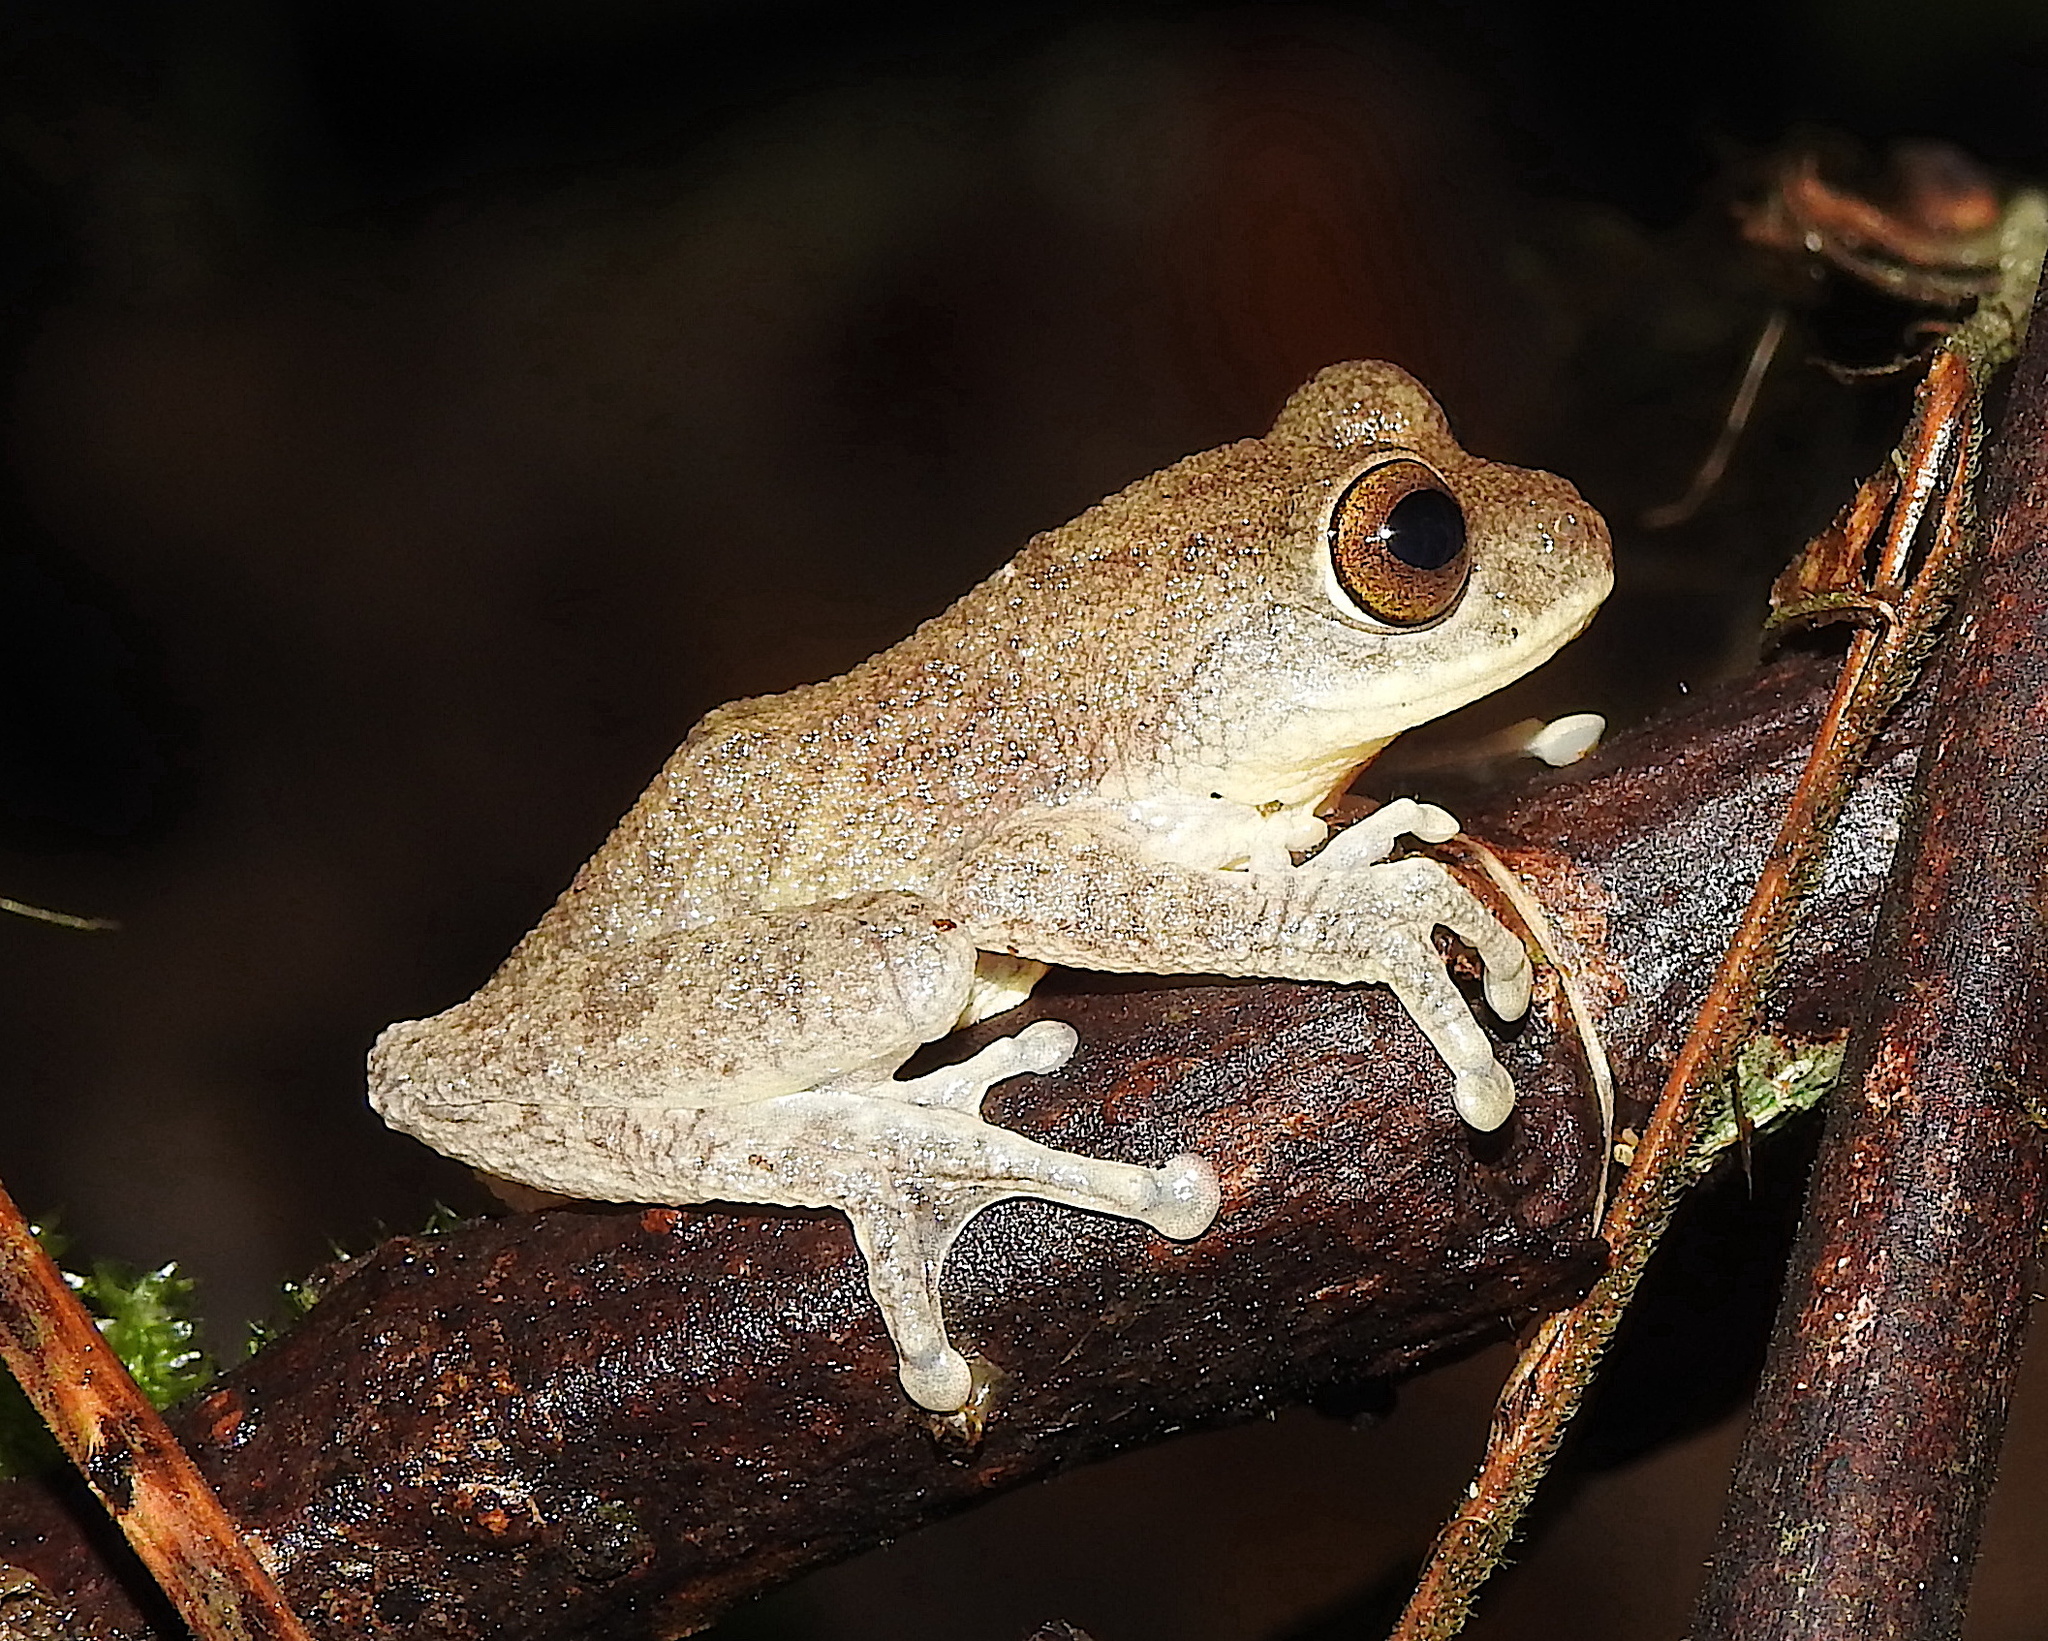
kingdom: Animalia
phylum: Chordata
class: Amphibia
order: Anura
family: Rhacophoridae
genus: Raorchestes
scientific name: Raorchestes hassanensis
